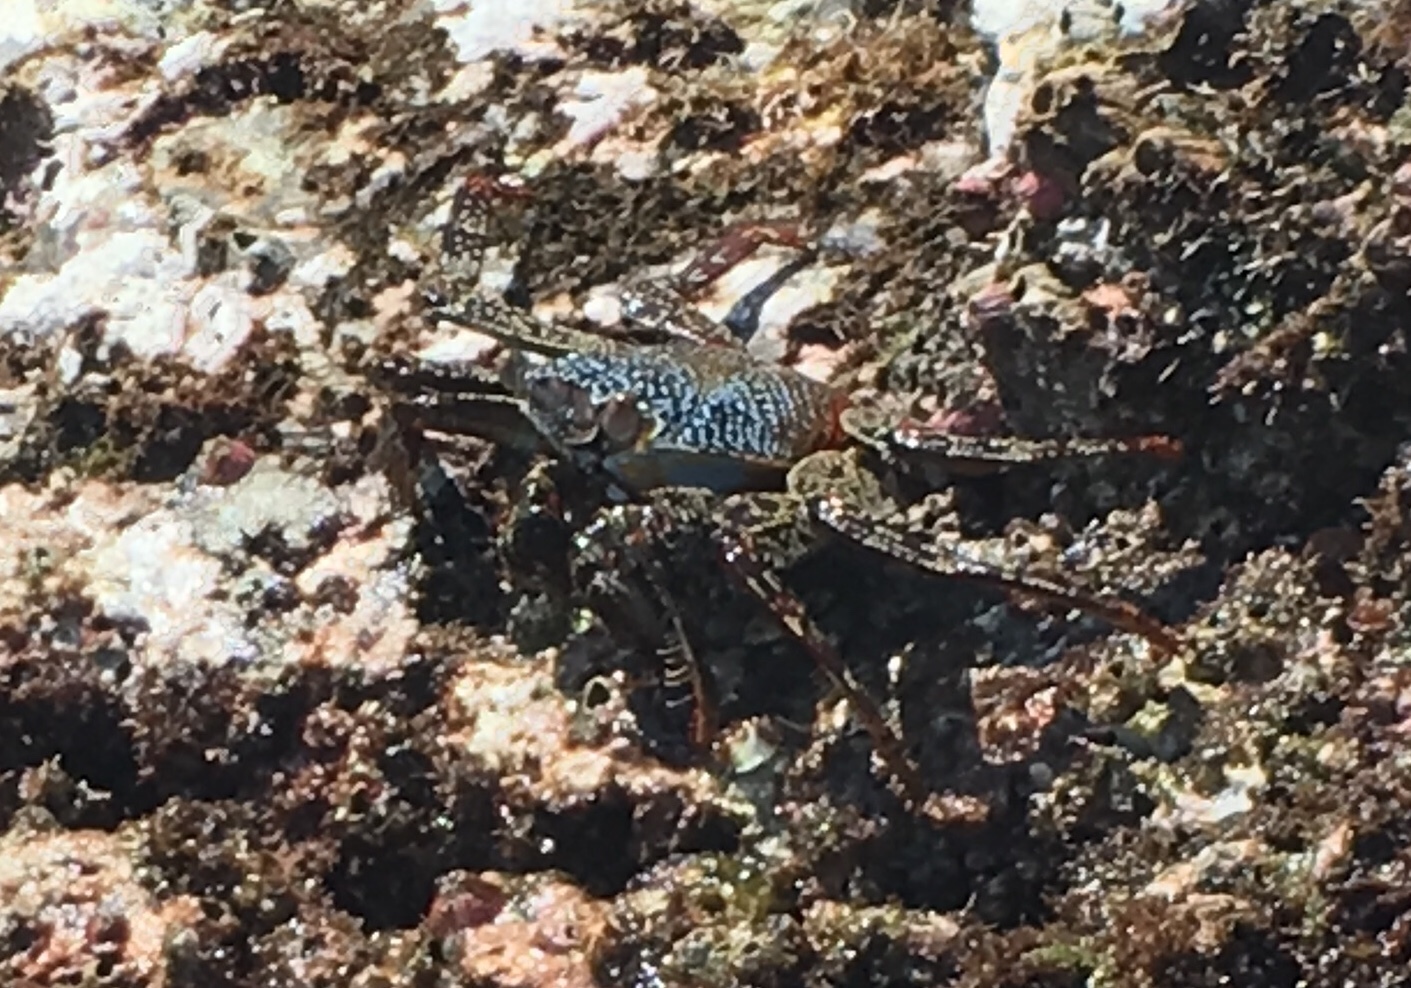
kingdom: Animalia
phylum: Arthropoda
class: Malacostraca
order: Decapoda
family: Grapsidae
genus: Grapsus
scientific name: Grapsus grapsus
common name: Sally lightfoot
